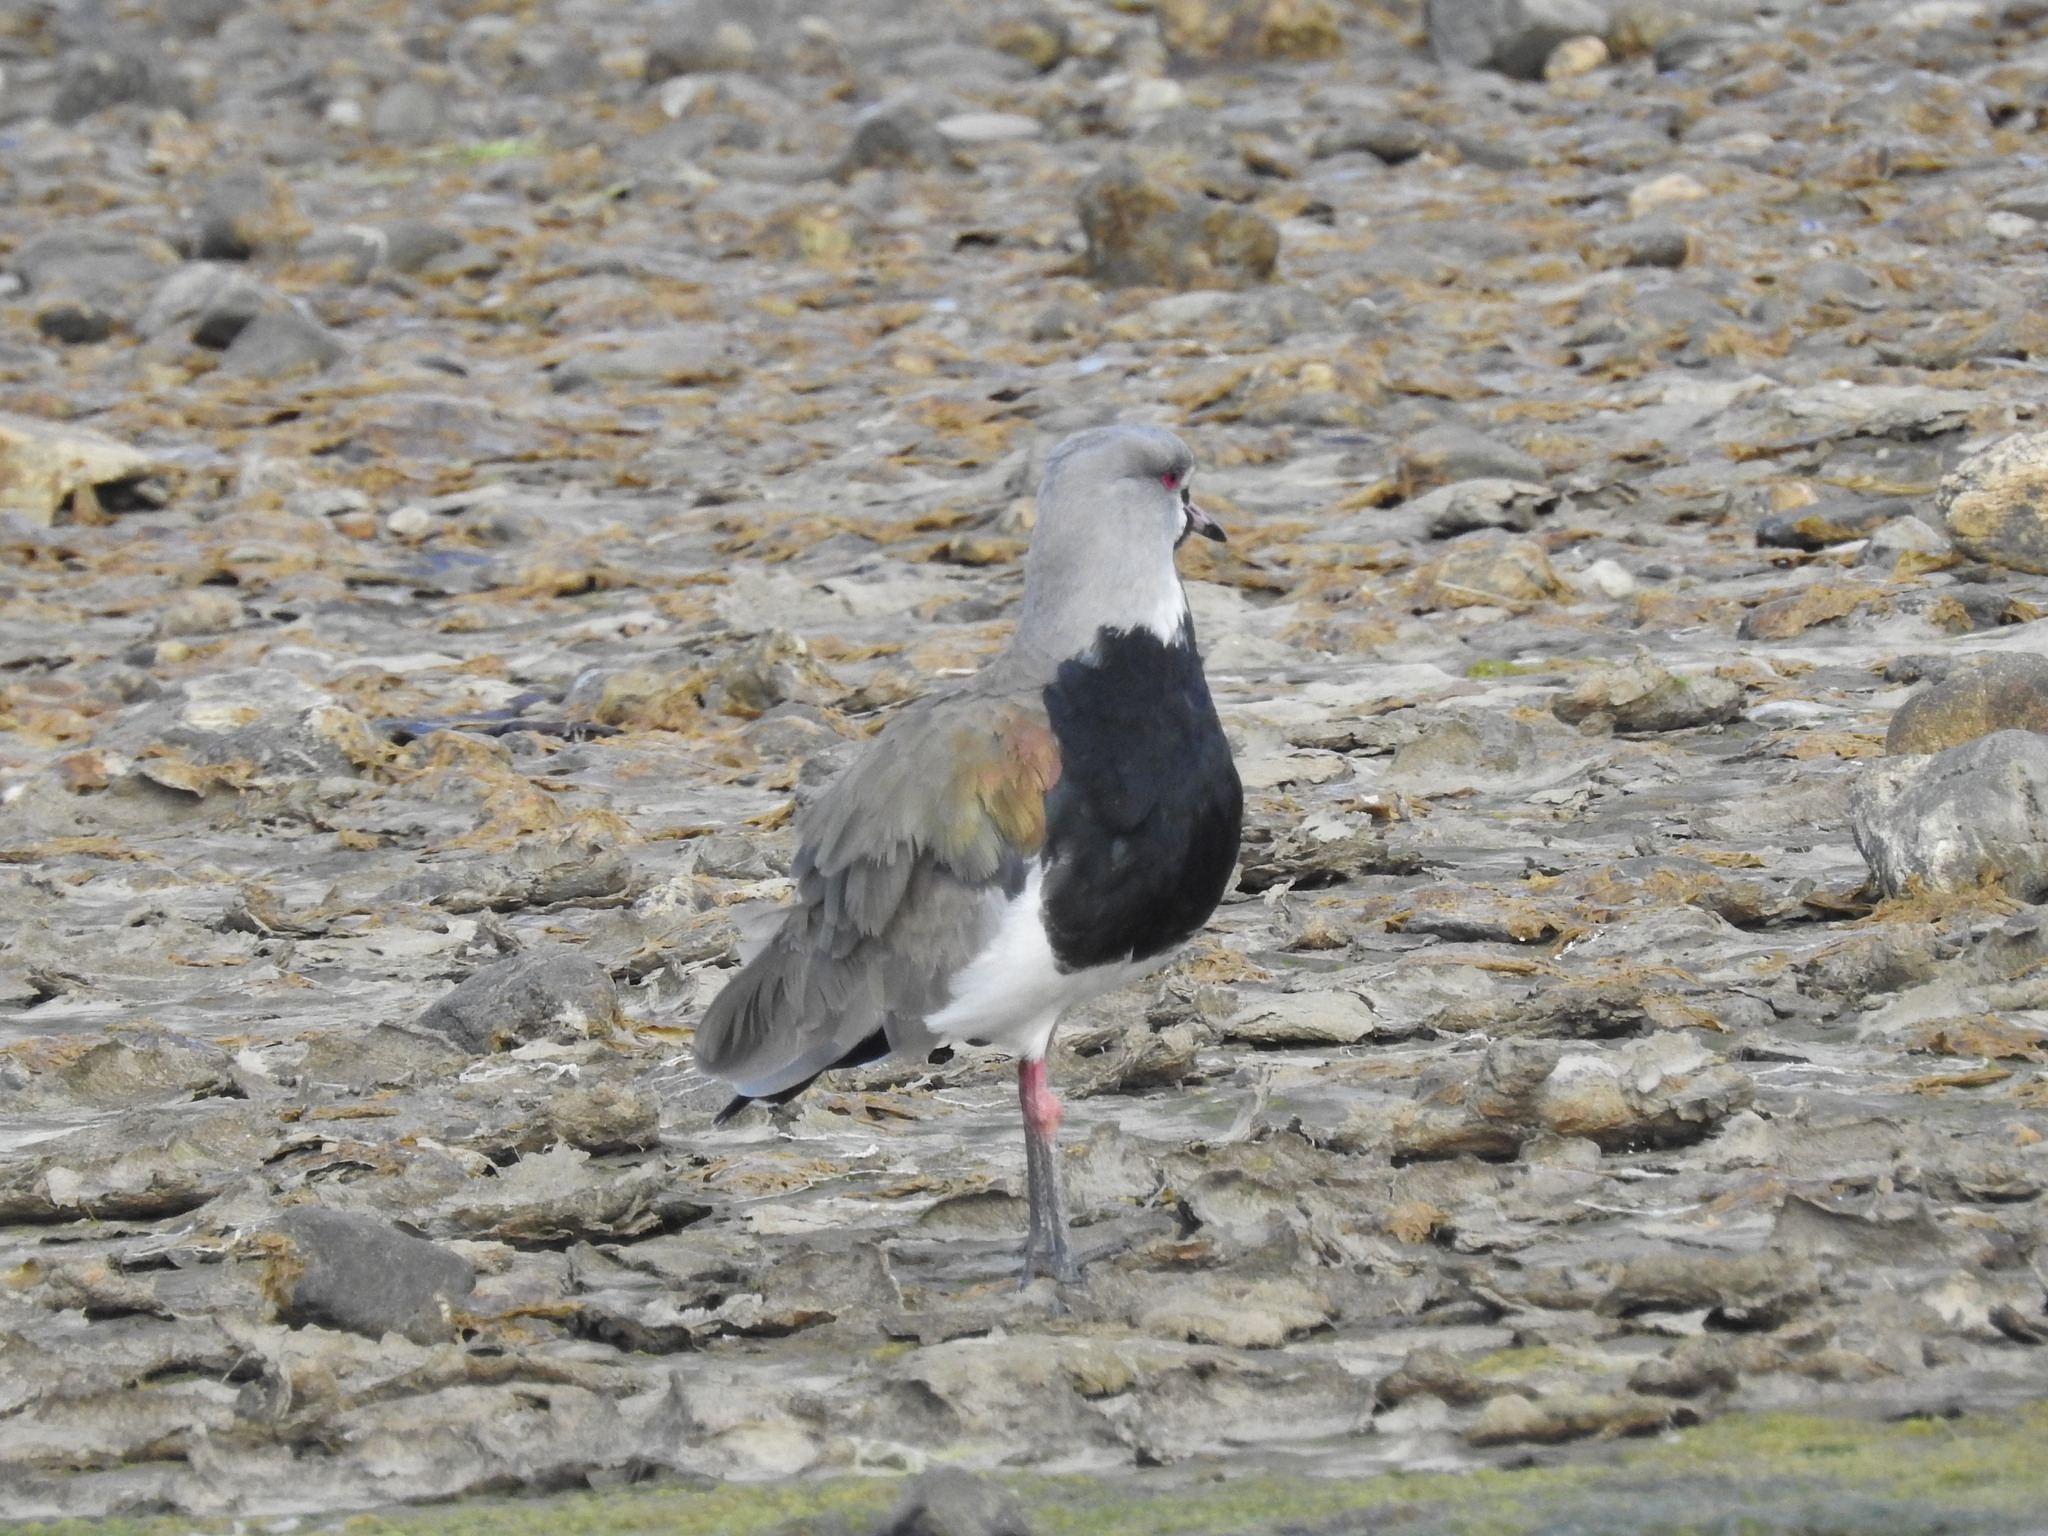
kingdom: Animalia
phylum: Chordata
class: Aves
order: Charadriiformes
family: Charadriidae
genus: Vanellus
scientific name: Vanellus chilensis
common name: Southern lapwing
